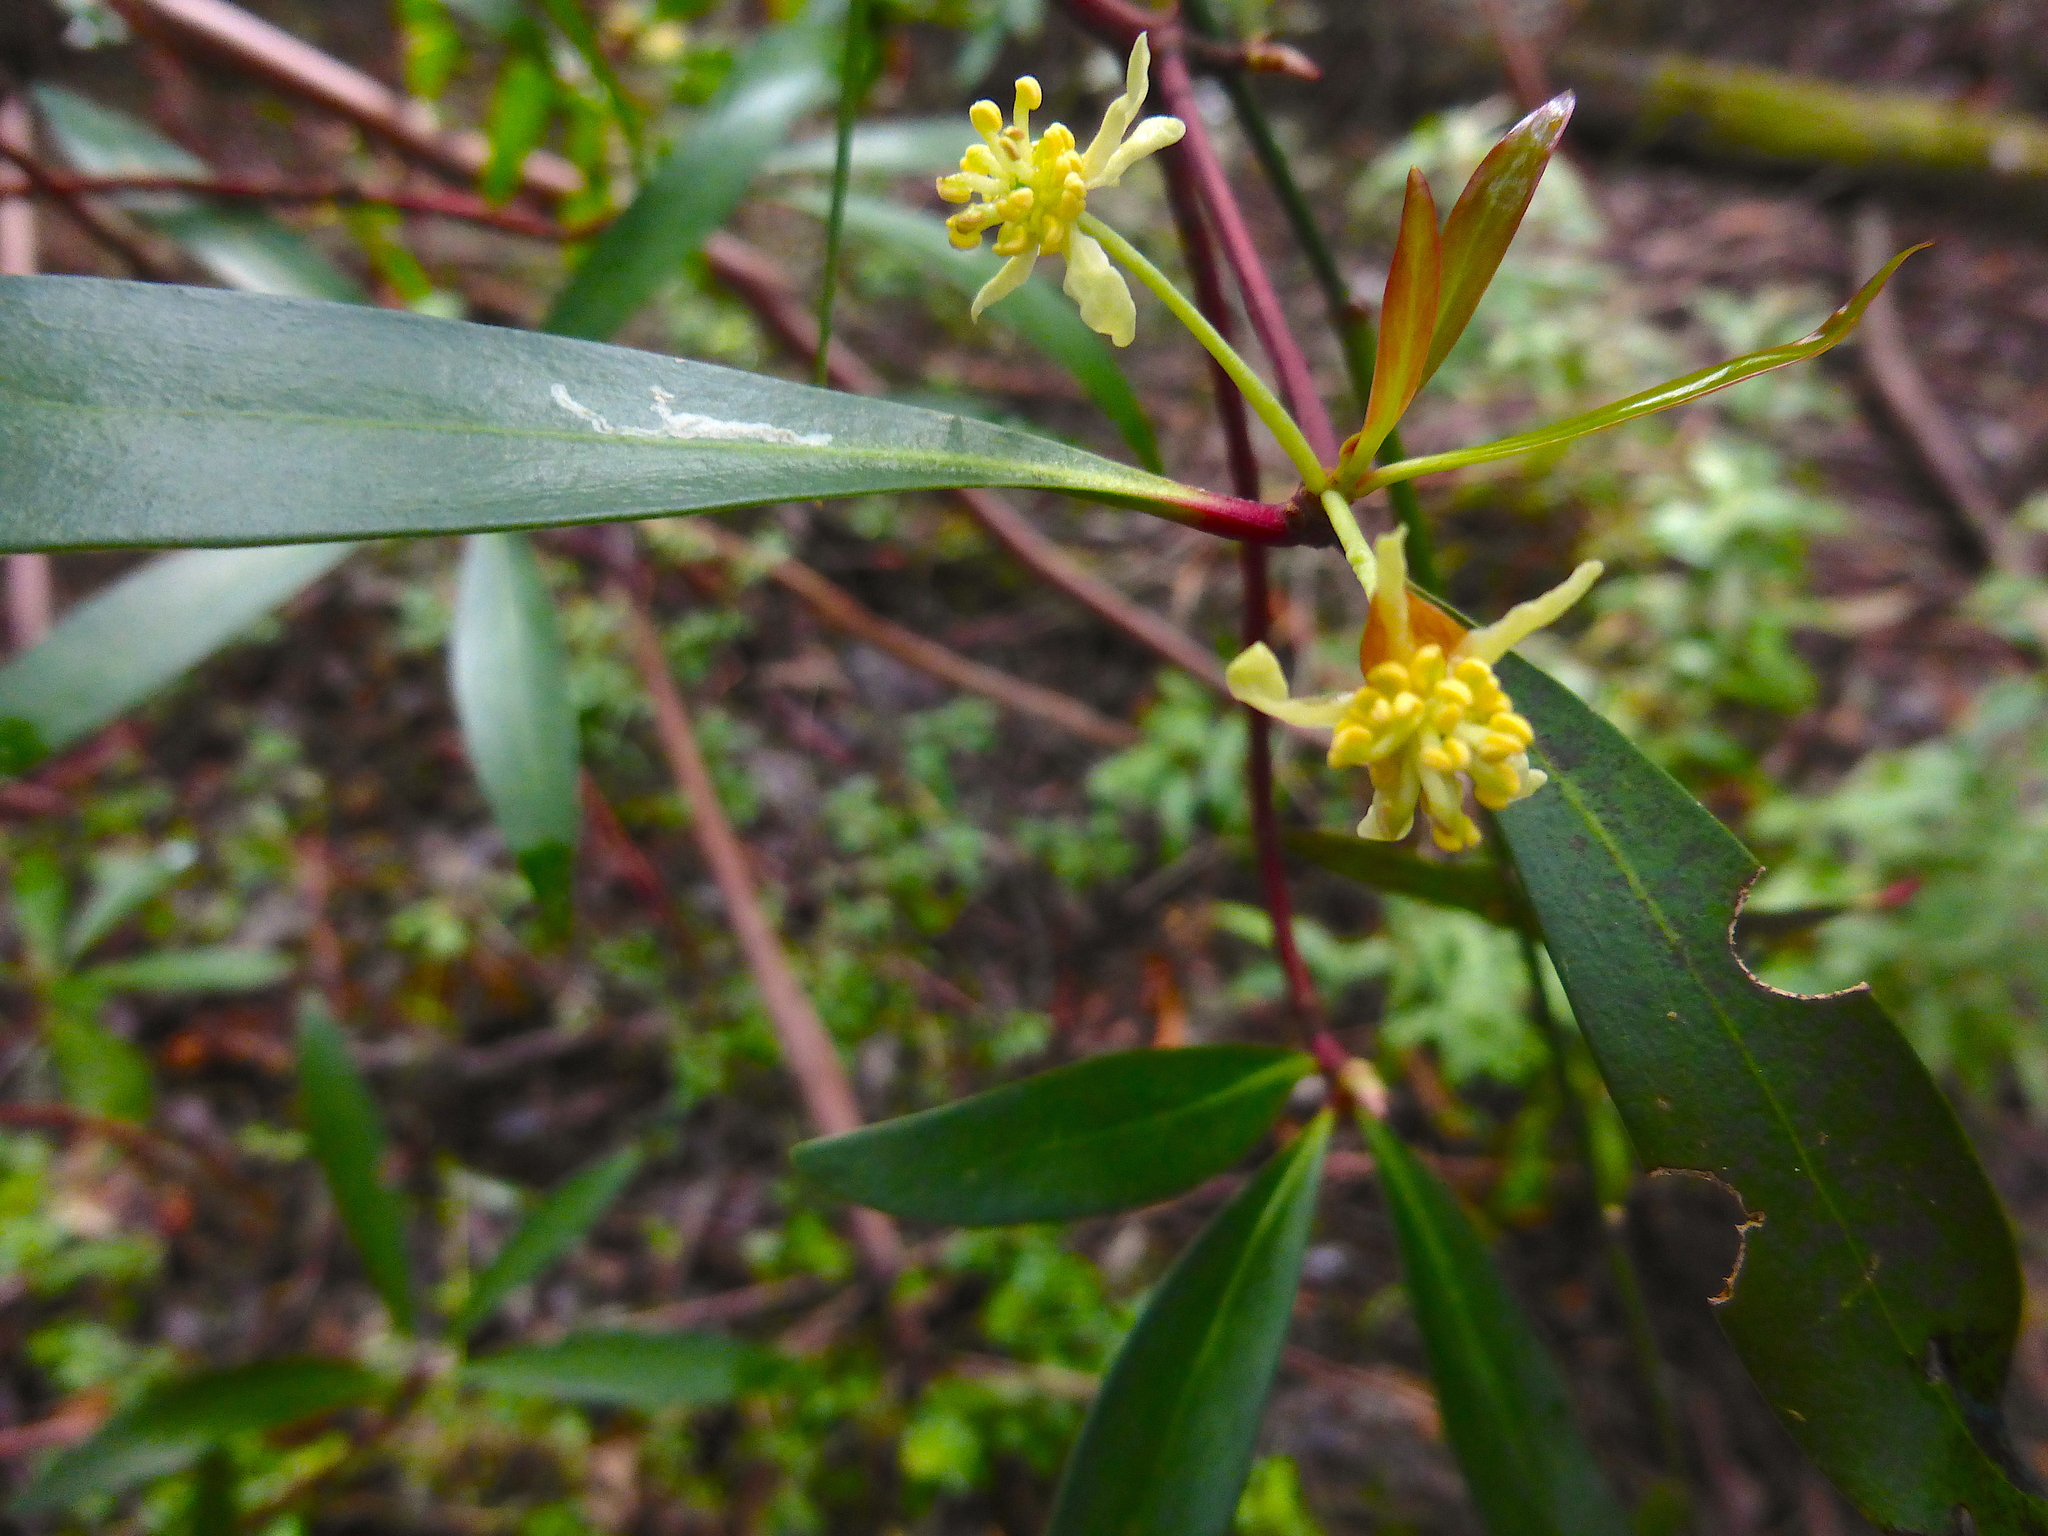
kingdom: Plantae
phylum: Tracheophyta
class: Magnoliopsida
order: Canellales
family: Winteraceae
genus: Drimys
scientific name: Drimys aromatica
